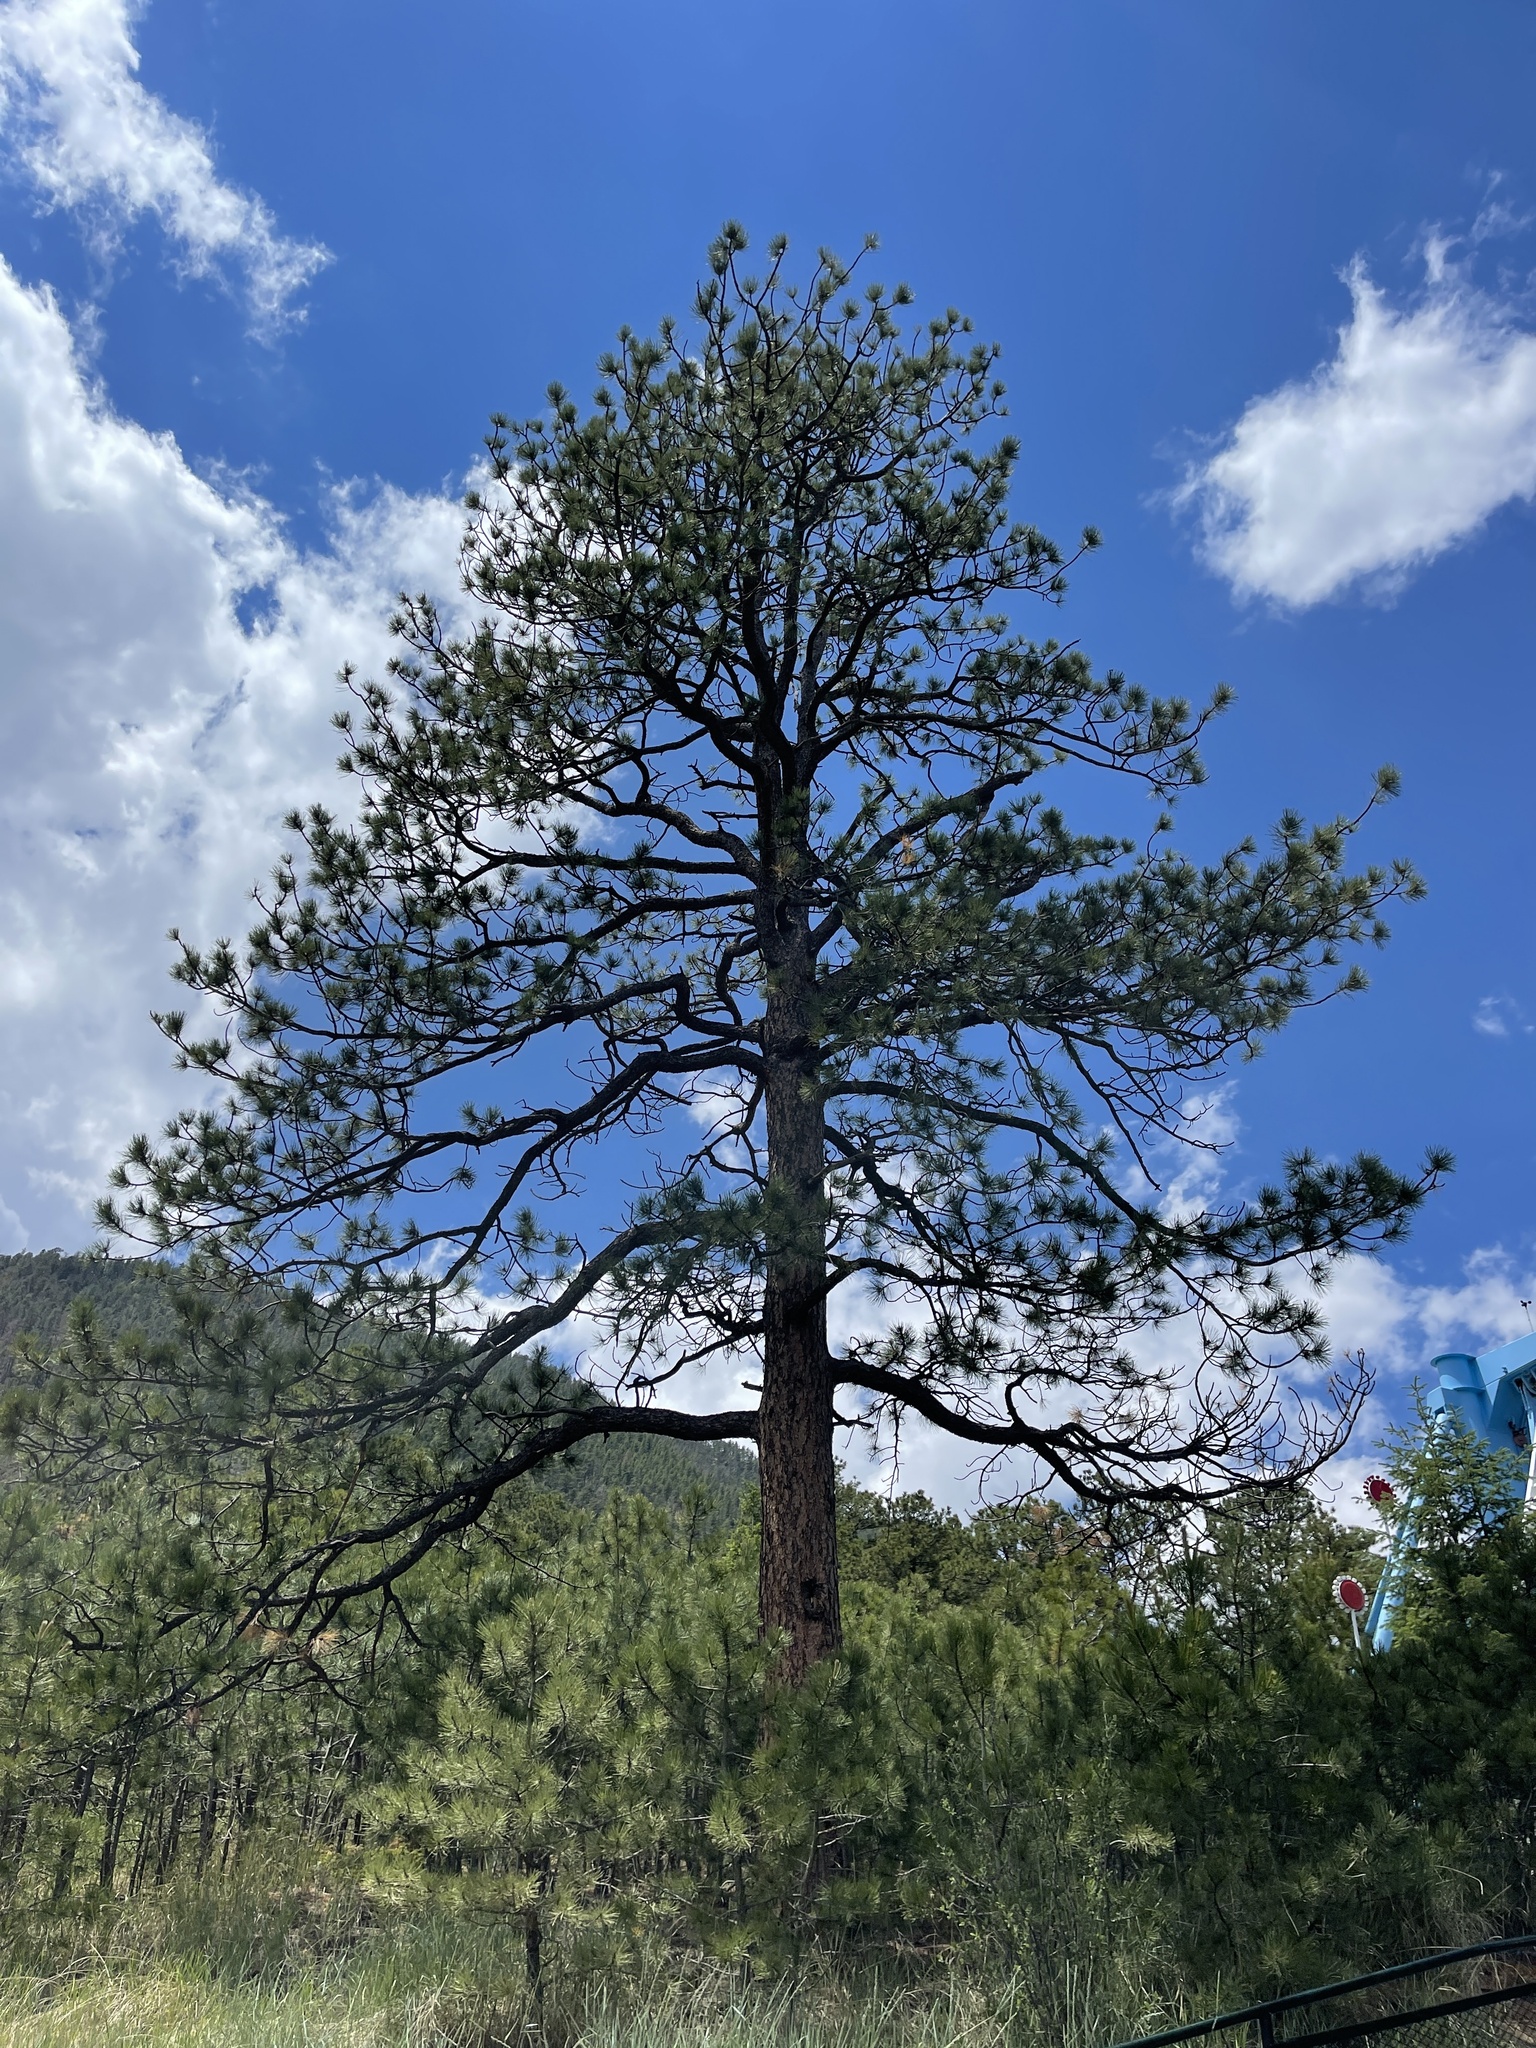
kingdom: Plantae
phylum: Tracheophyta
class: Pinopsida
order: Pinales
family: Pinaceae
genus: Pinus
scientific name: Pinus ponderosa
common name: Western yellow-pine
